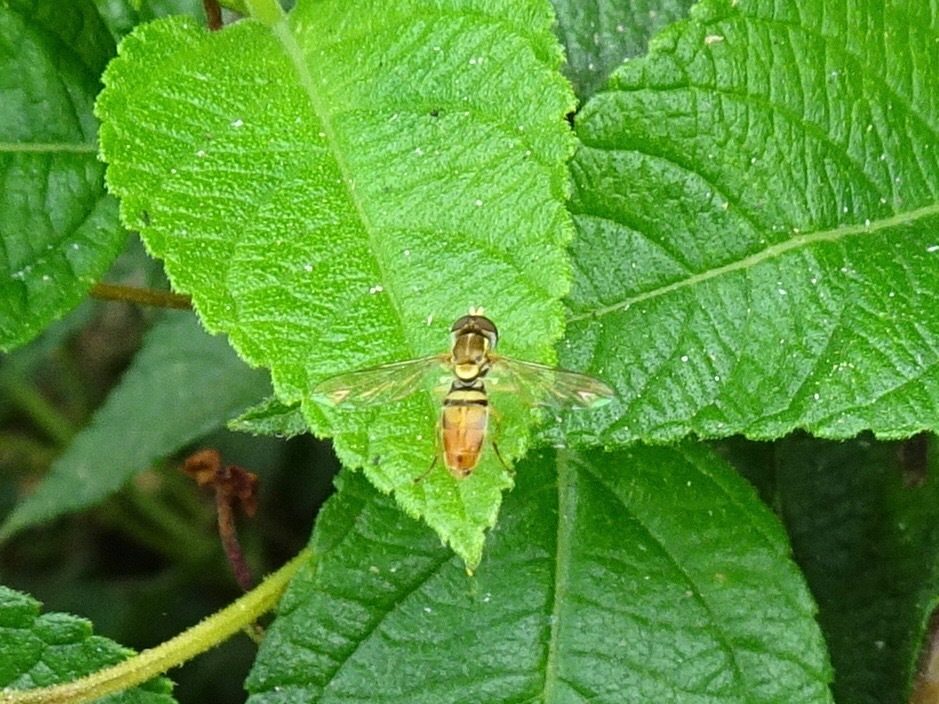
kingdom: Animalia
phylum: Arthropoda
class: Insecta
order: Diptera
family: Syrphidae
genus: Toxomerus
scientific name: Toxomerus marginatus
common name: Syrphid fly
